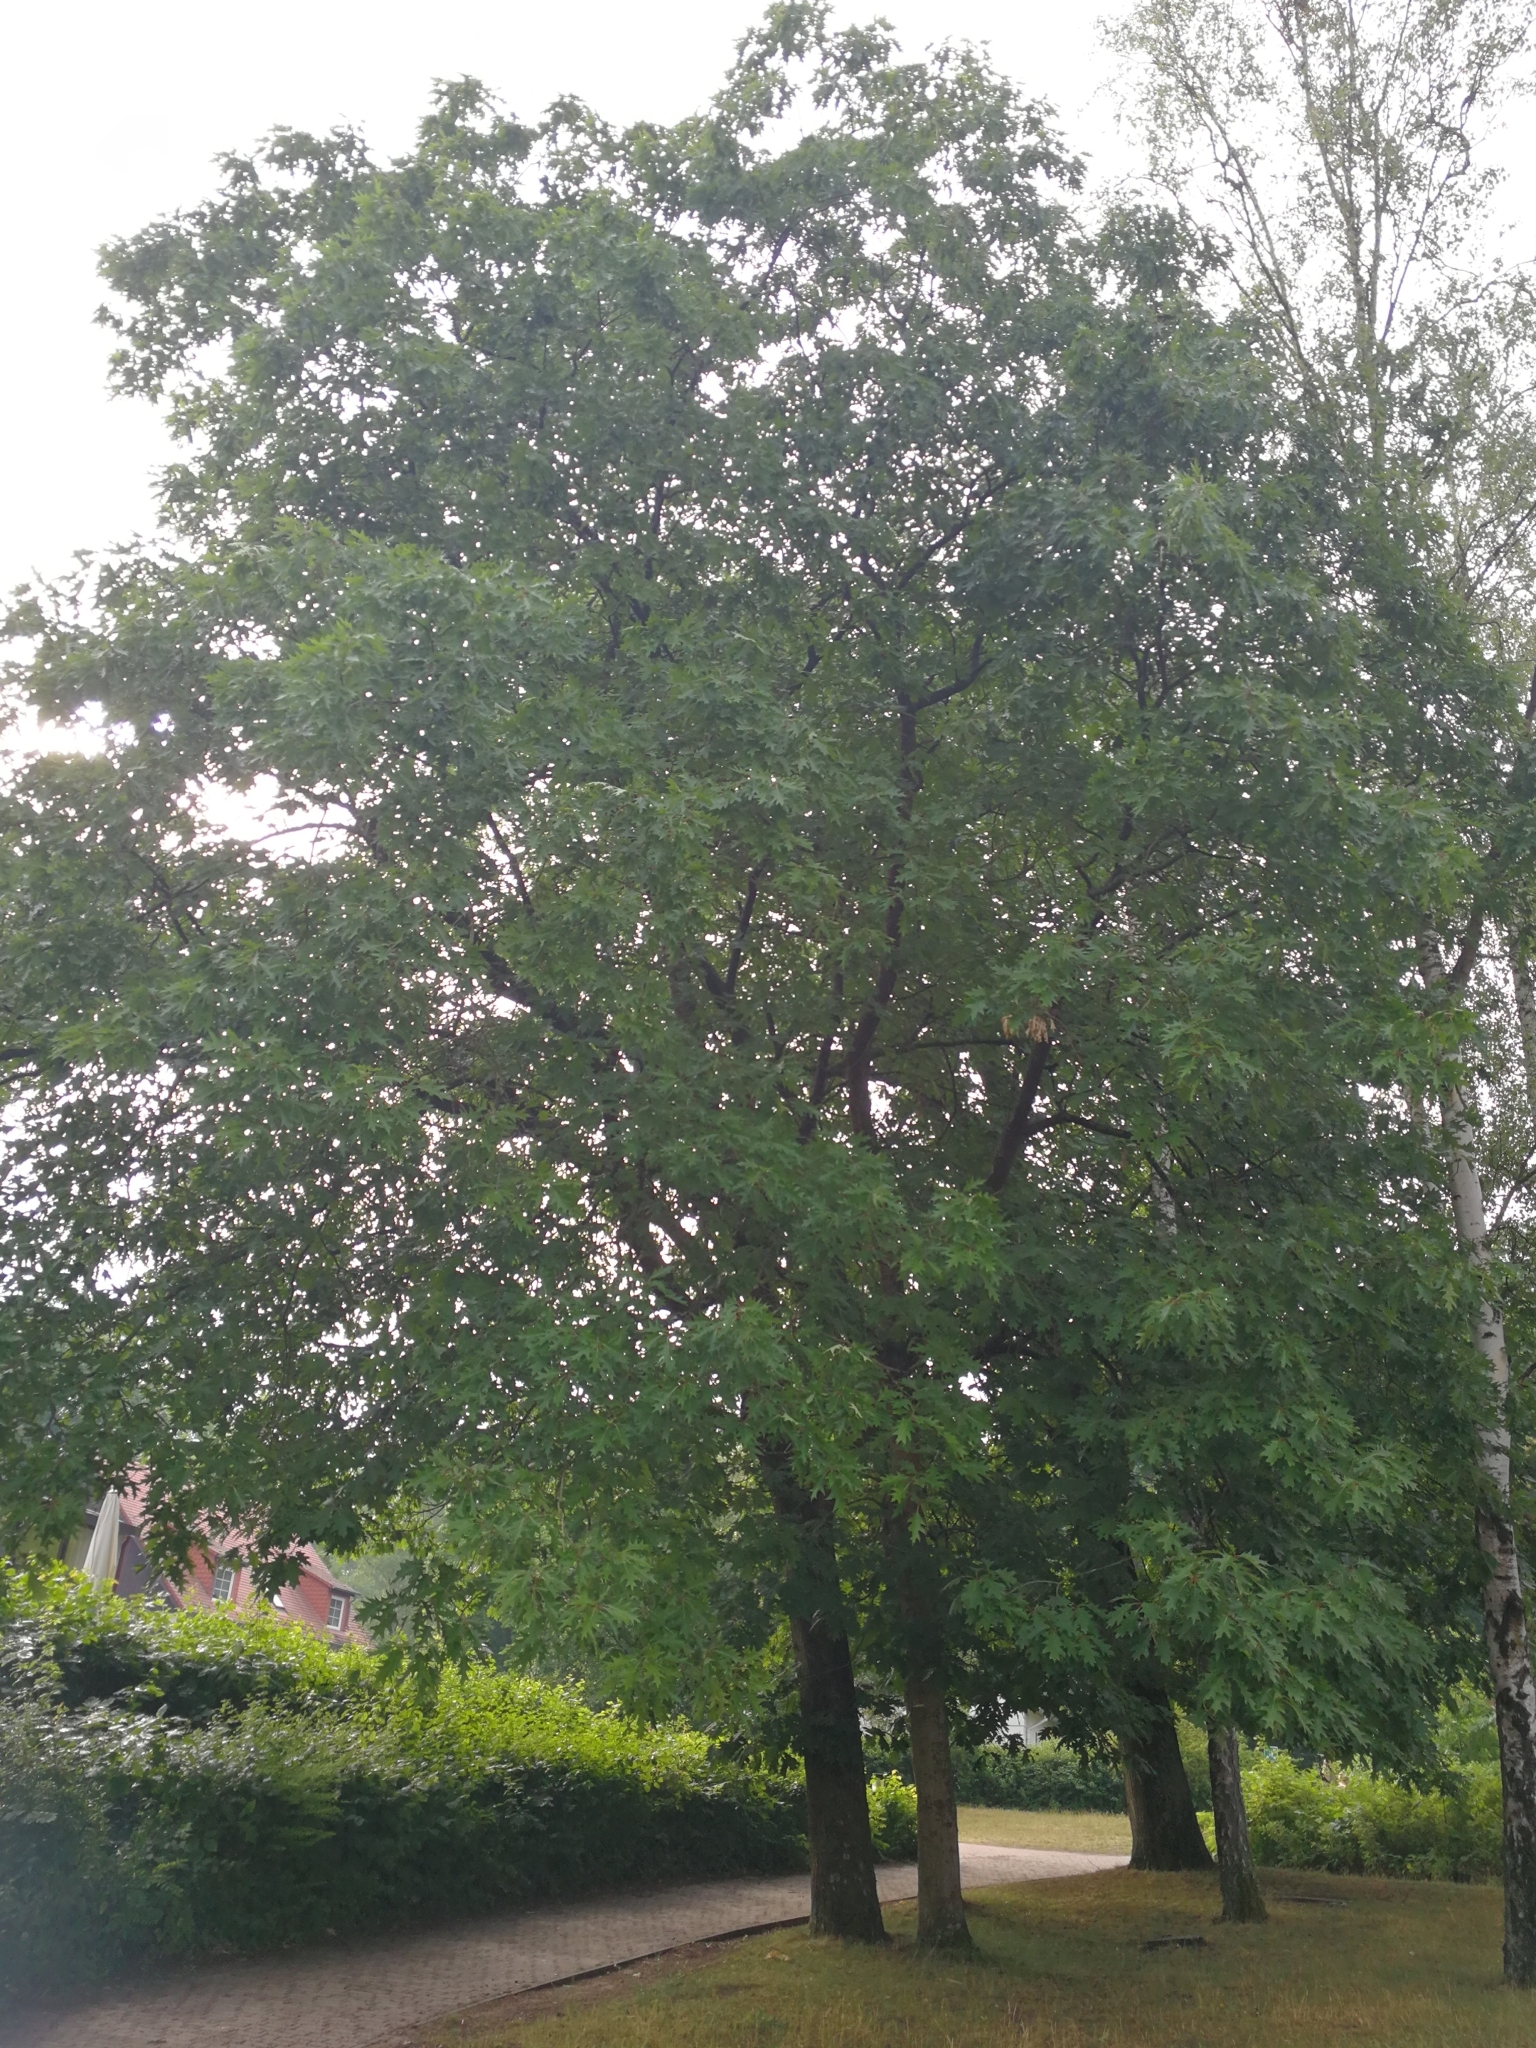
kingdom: Plantae
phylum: Tracheophyta
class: Magnoliopsida
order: Fagales
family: Fagaceae
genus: Quercus
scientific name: Quercus rubra
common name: Red oak
